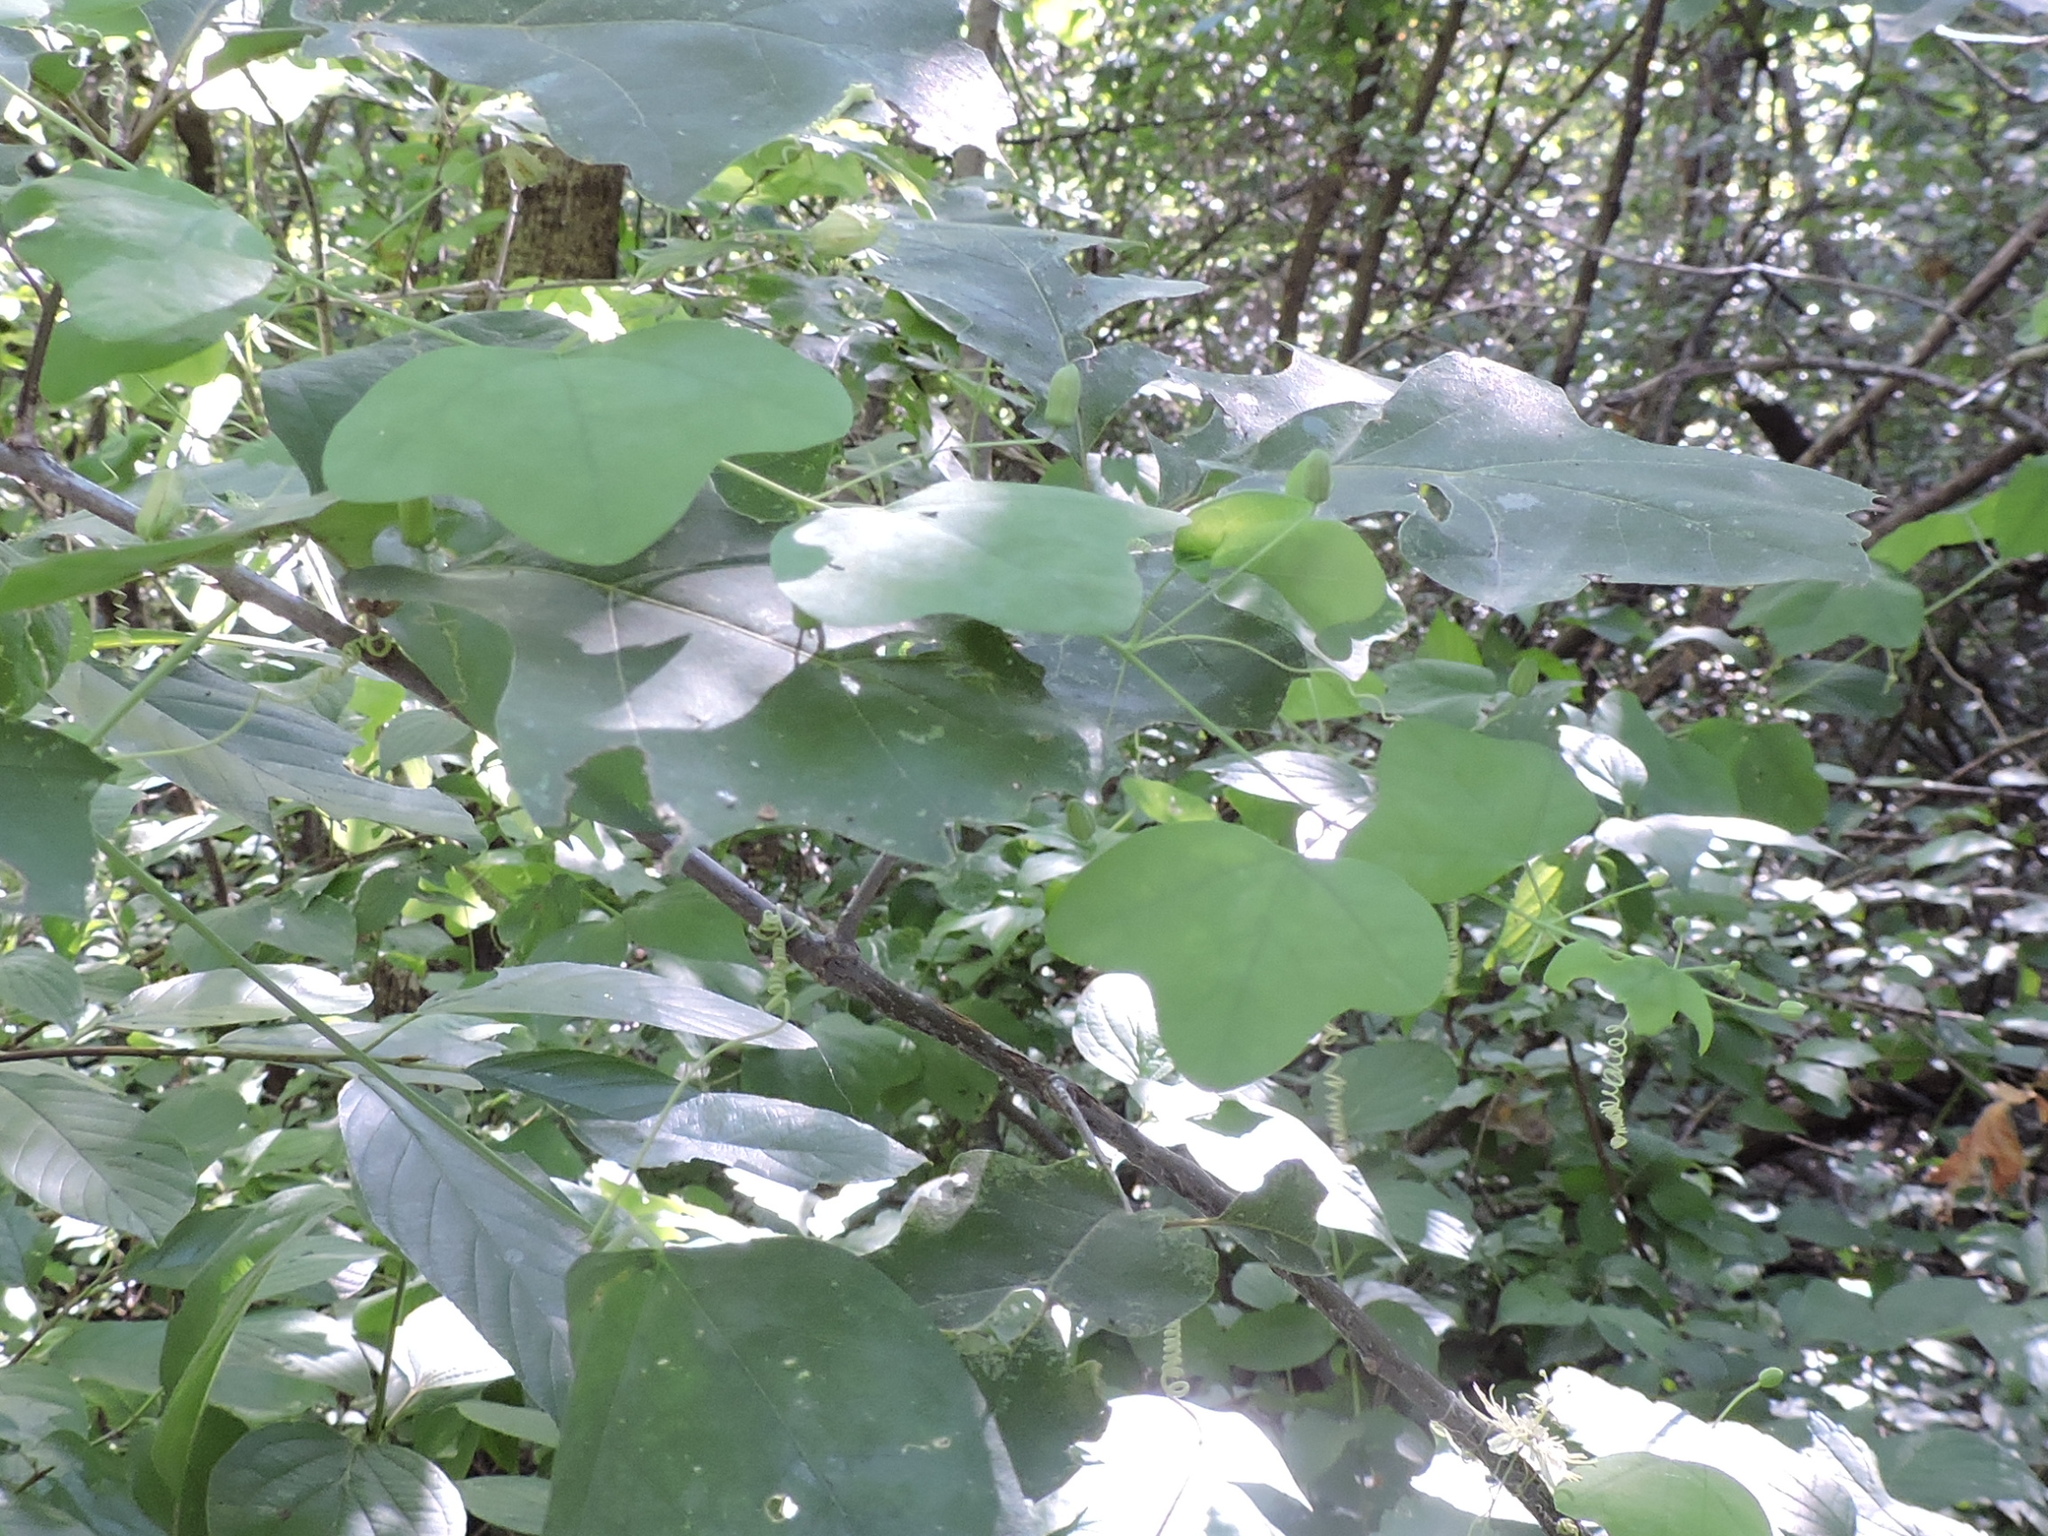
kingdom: Plantae
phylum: Tracheophyta
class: Magnoliopsida
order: Malpighiales
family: Passifloraceae
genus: Passiflora
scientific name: Passiflora lutea
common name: Yellow passionflower
